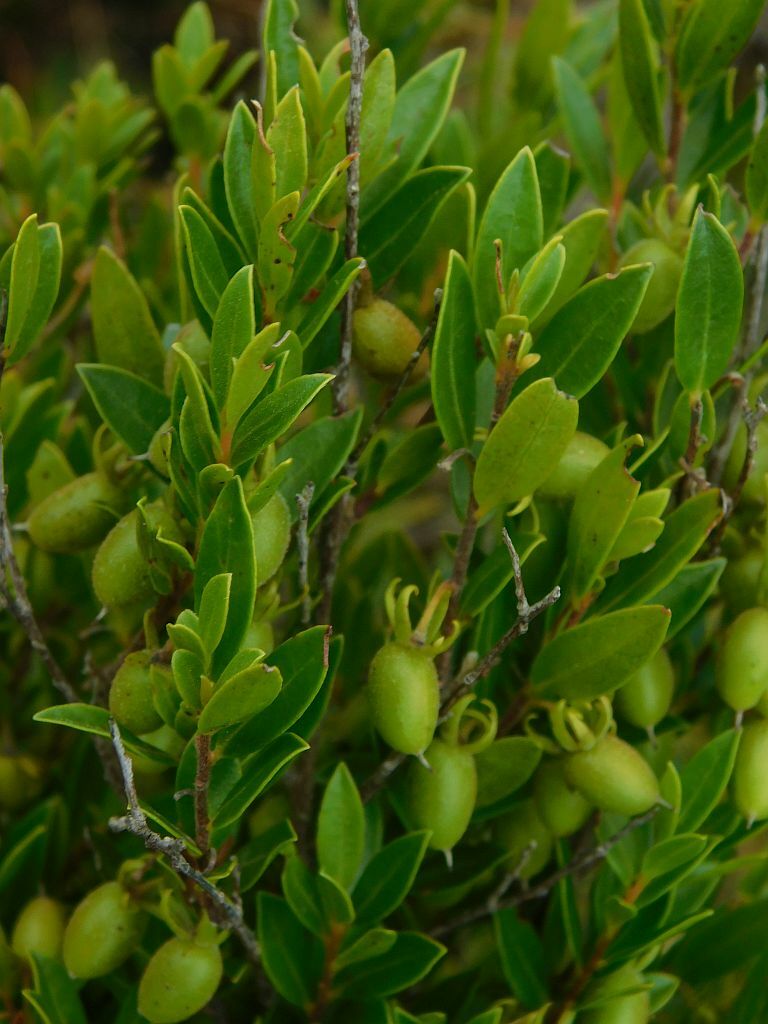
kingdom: Plantae
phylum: Tracheophyta
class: Magnoliopsida
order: Ericales
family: Ebenaceae
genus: Diospyros
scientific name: Diospyros glabra
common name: Fynbos star apple
